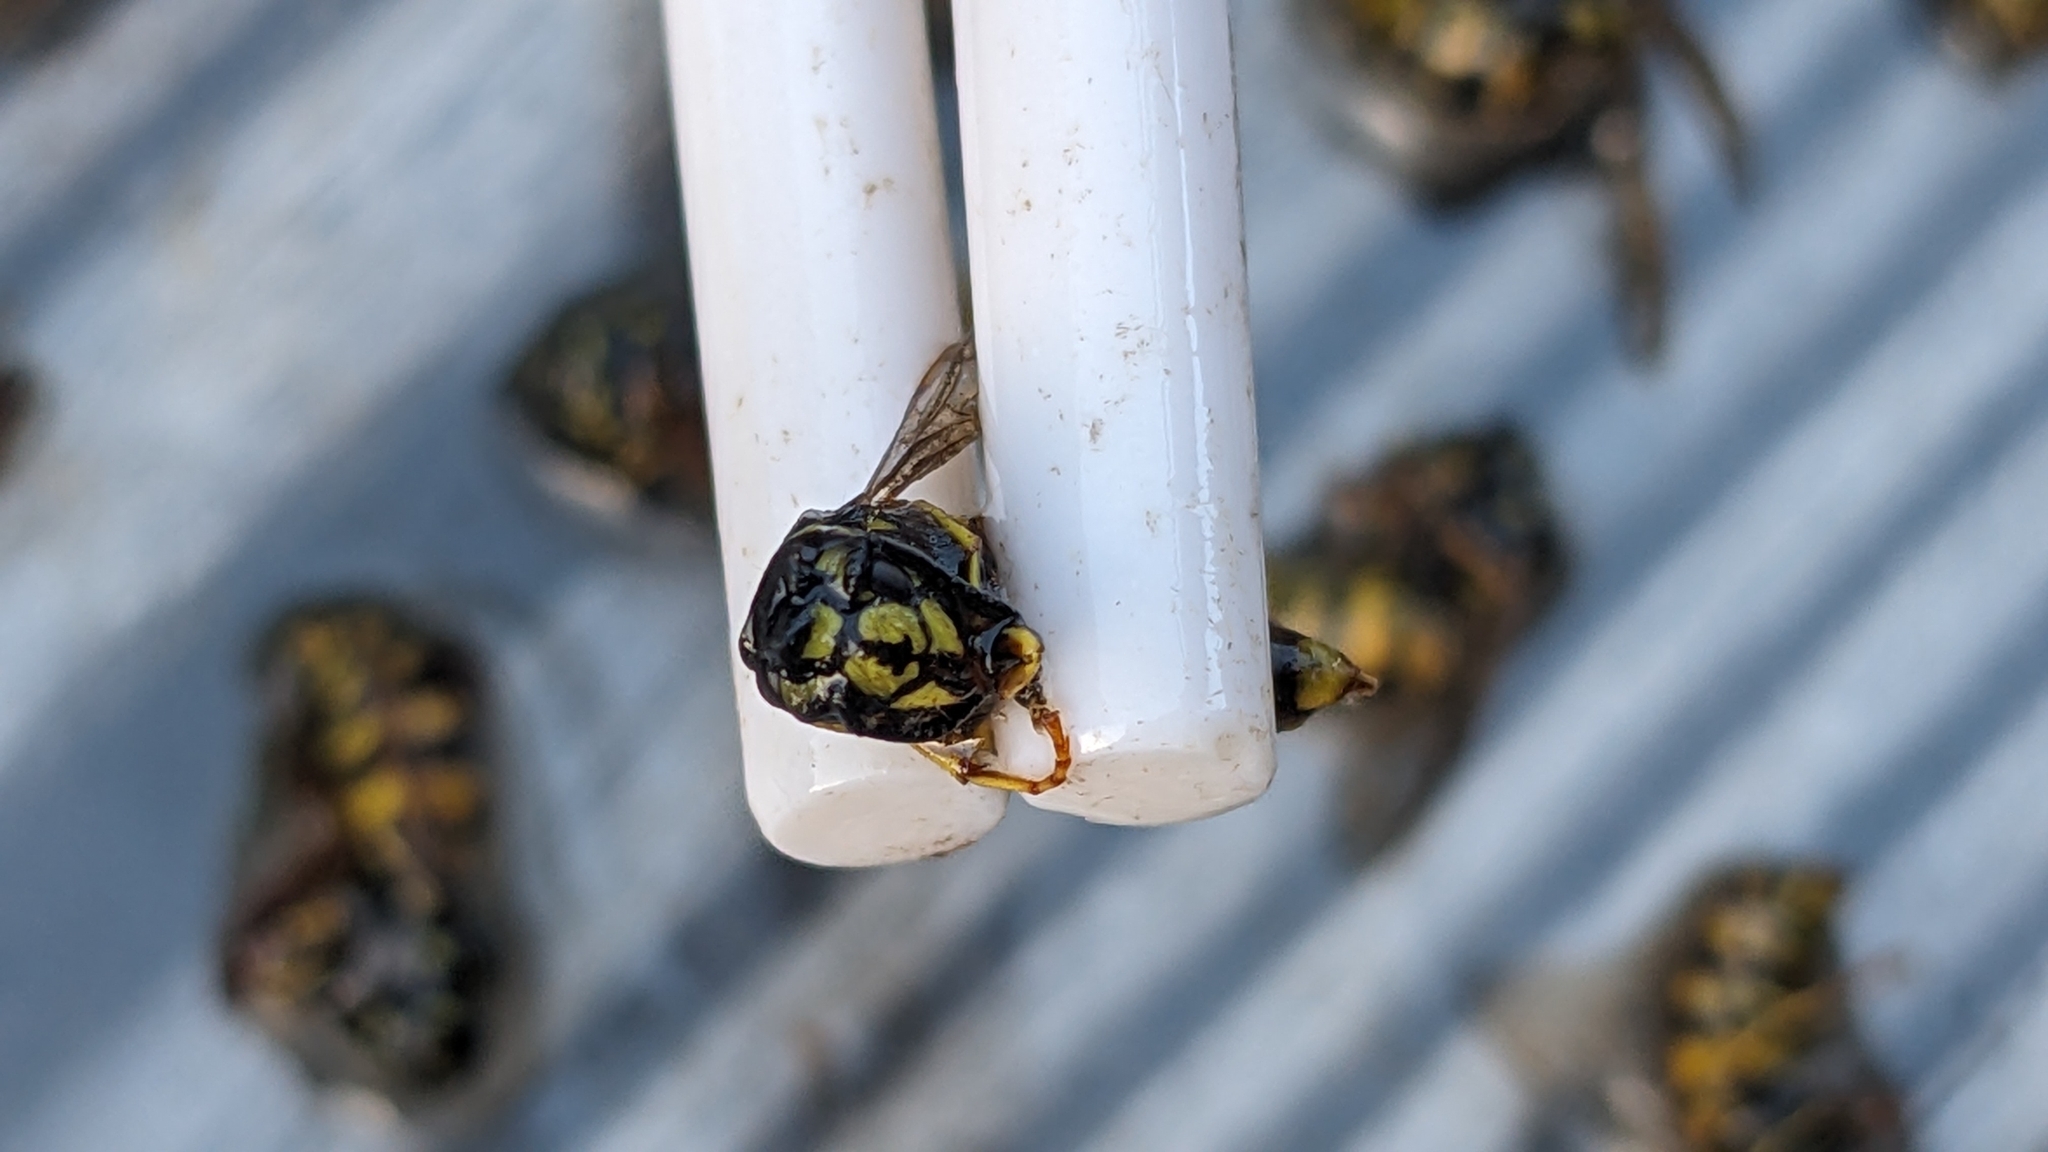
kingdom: Animalia
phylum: Arthropoda
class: Insecta
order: Hymenoptera
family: Vespidae
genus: Vespula
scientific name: Vespula vulgaris
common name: Common wasp
